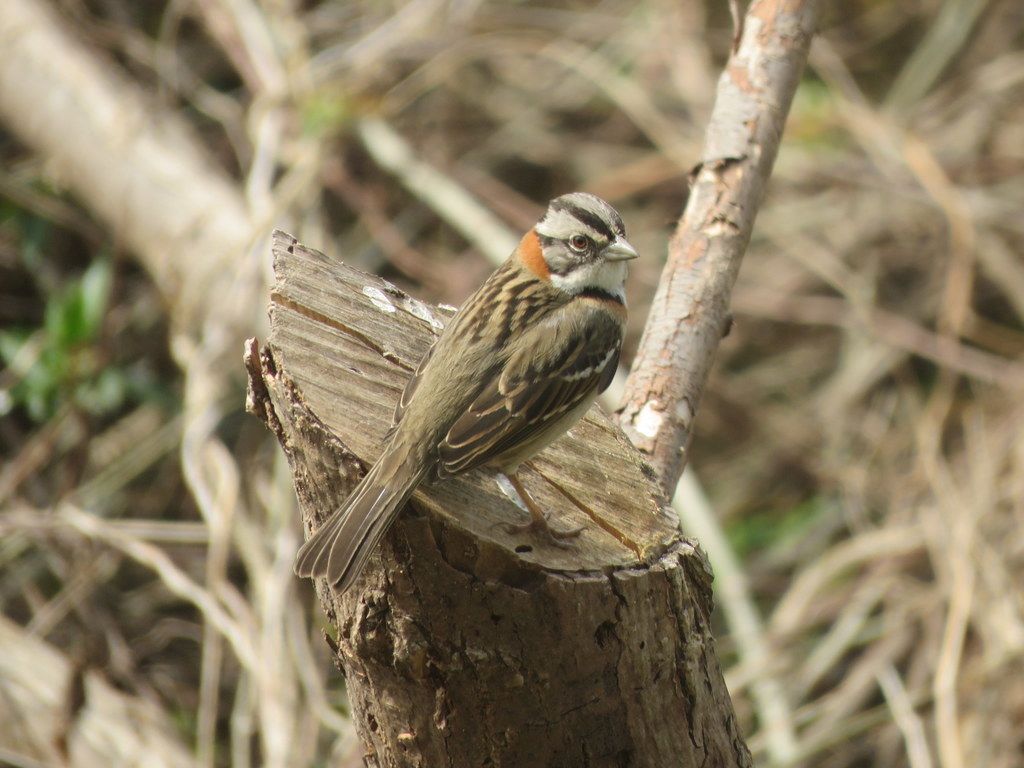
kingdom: Animalia
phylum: Chordata
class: Aves
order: Passeriformes
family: Passerellidae
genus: Zonotrichia
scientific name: Zonotrichia capensis
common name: Rufous-collared sparrow
